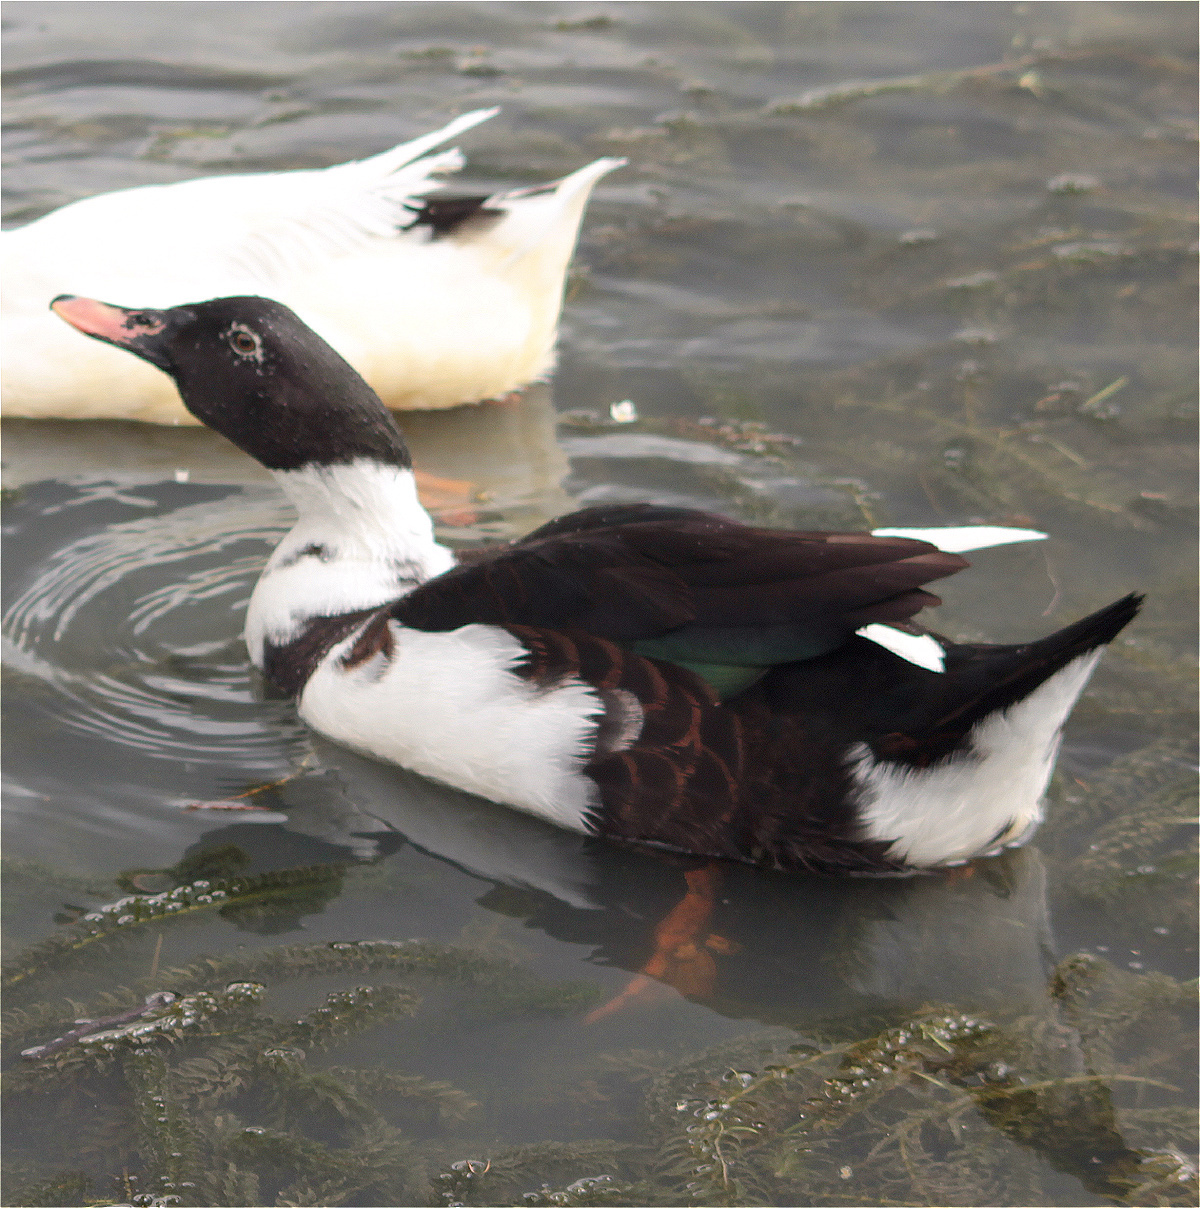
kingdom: Animalia
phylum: Chordata
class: Aves
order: Anseriformes
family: Anatidae
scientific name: Anatidae
